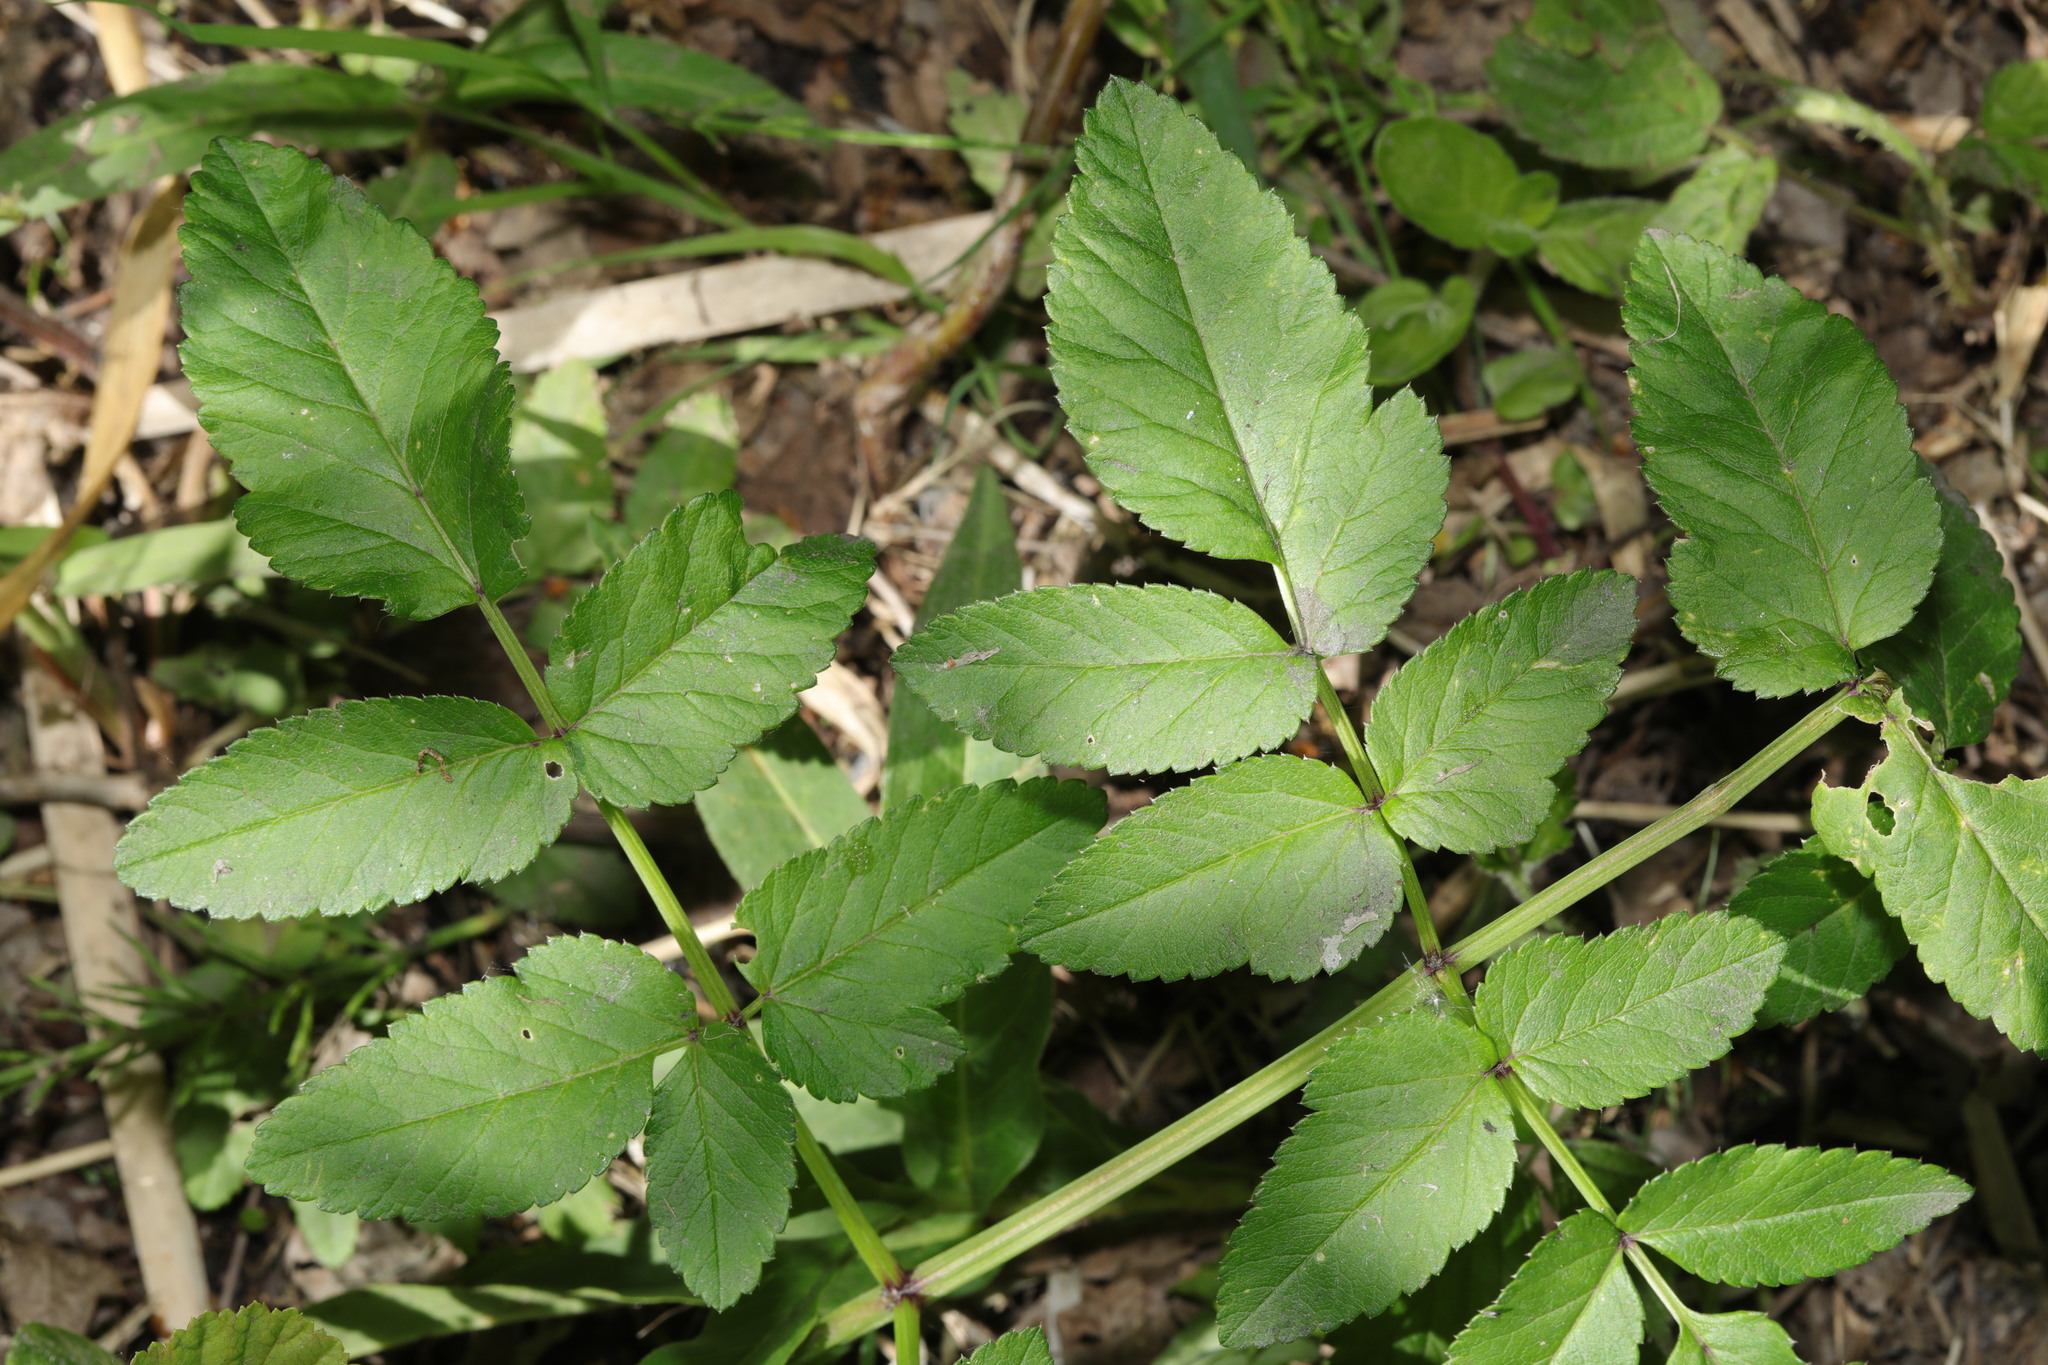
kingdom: Plantae
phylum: Tracheophyta
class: Magnoliopsida
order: Apiales
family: Apiaceae
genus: Angelica
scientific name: Angelica sylvestris
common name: Wild angelica
